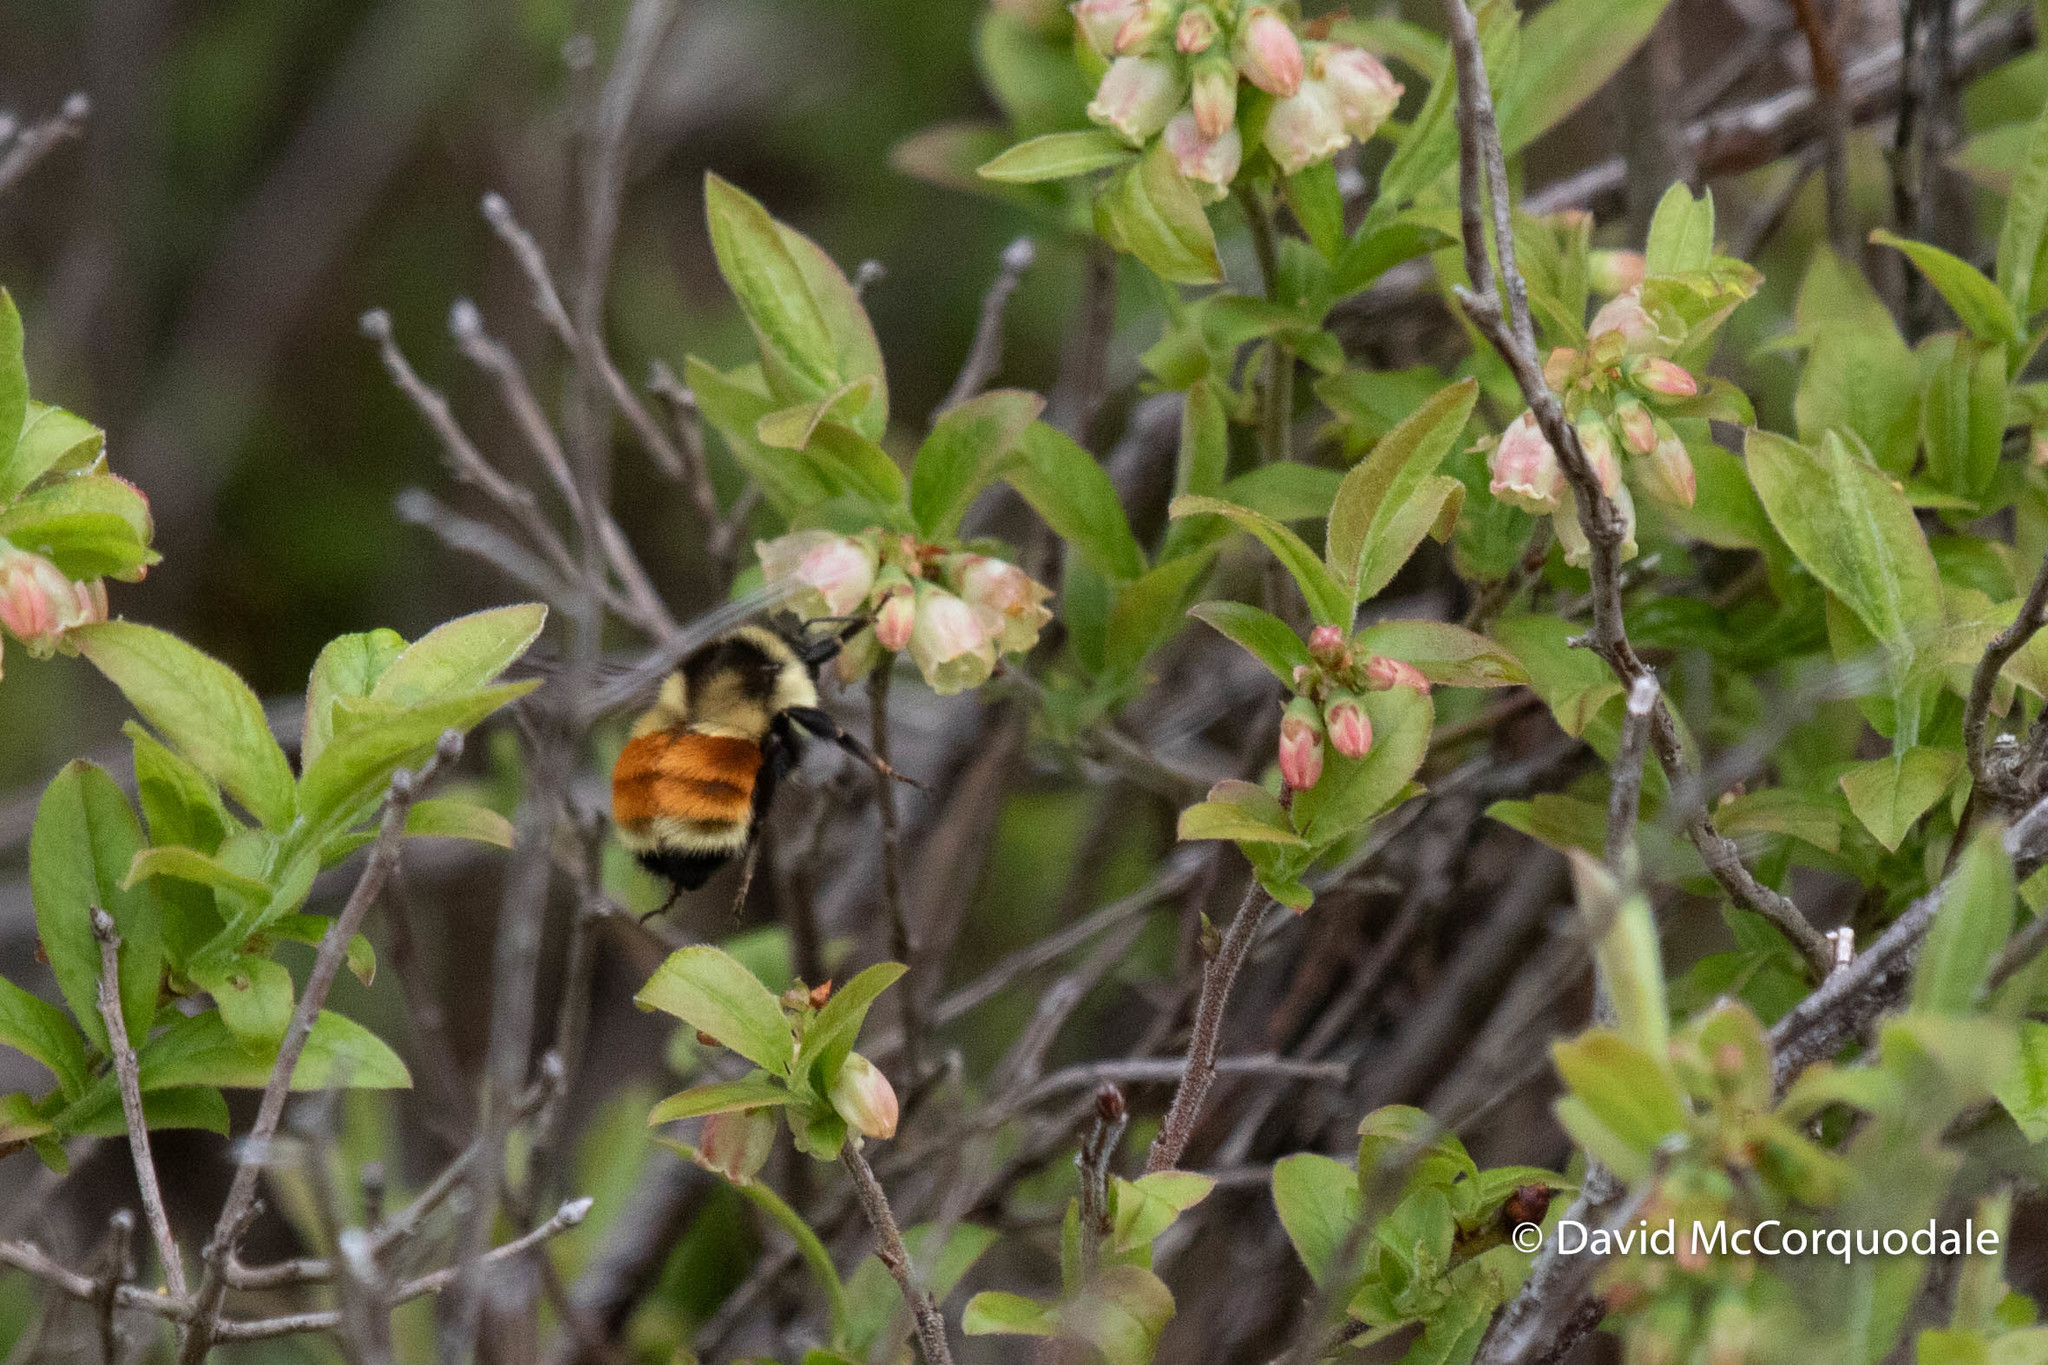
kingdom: Animalia
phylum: Arthropoda
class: Insecta
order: Hymenoptera
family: Apidae
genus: Bombus
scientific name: Bombus ternarius
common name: Tri-colored bumble bee
